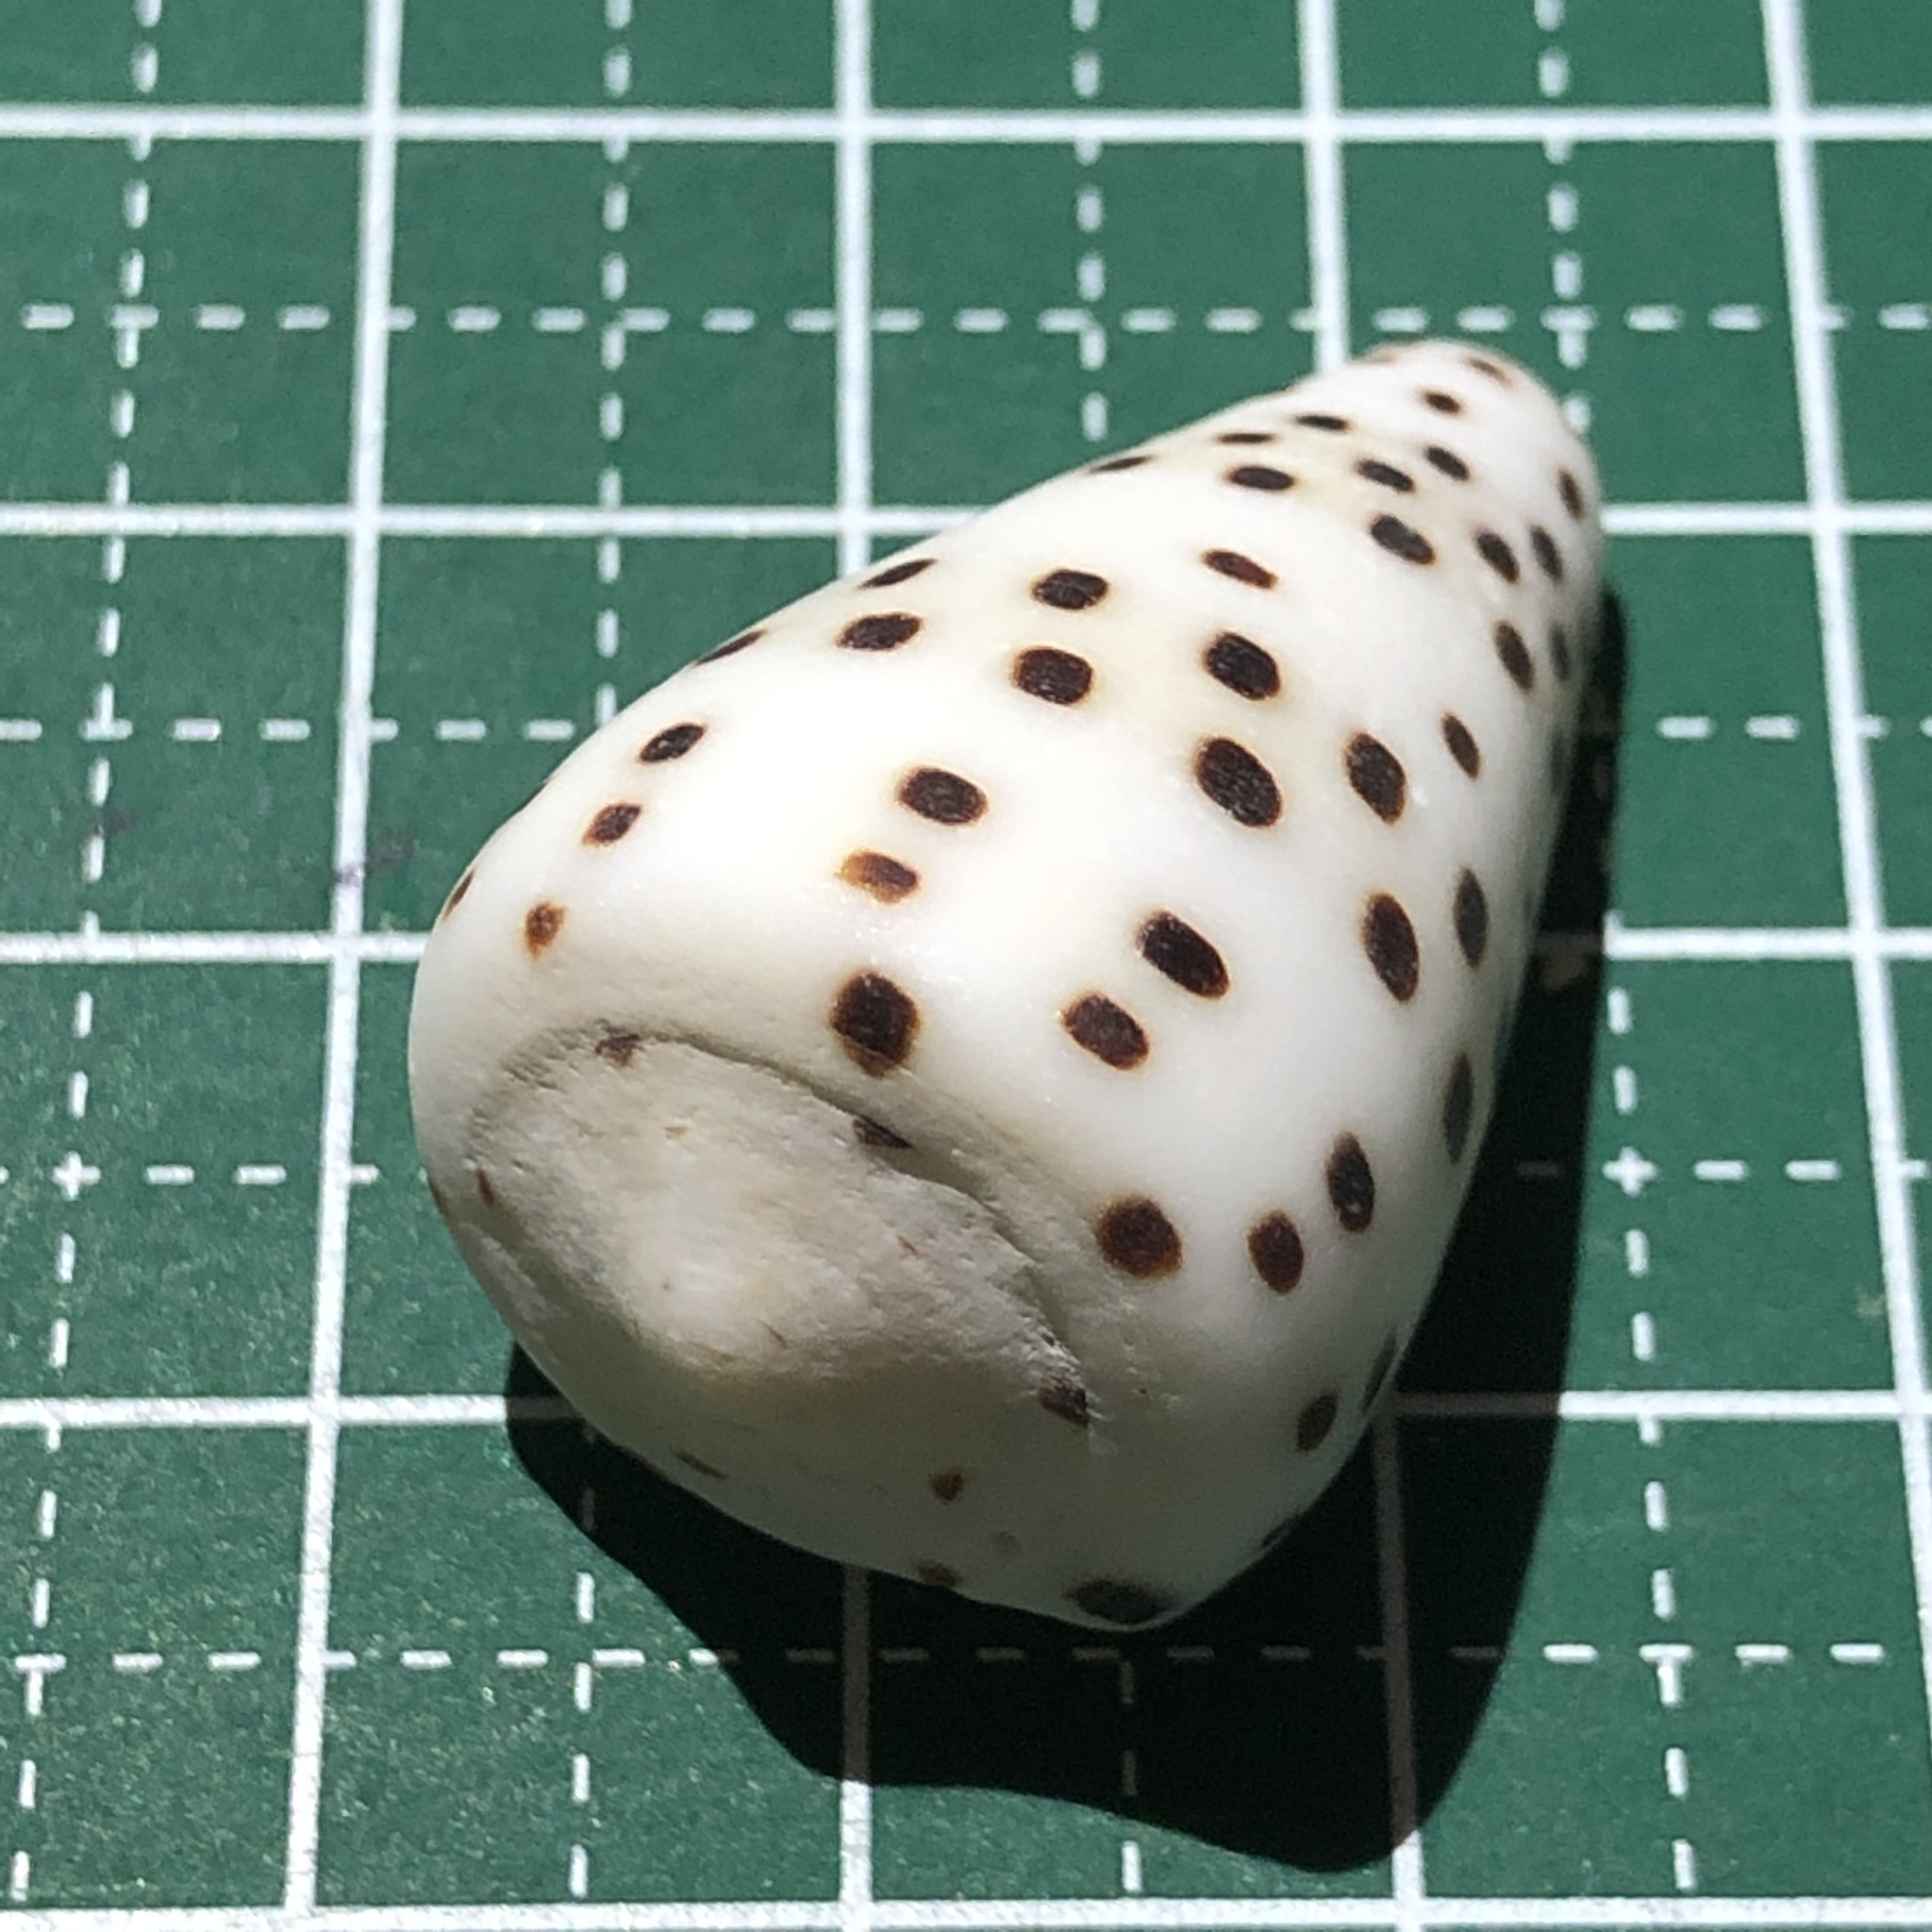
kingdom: Animalia
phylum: Mollusca
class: Gastropoda
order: Neogastropoda
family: Conidae
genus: Conus
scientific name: Conus eburneus
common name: Ivory cone
